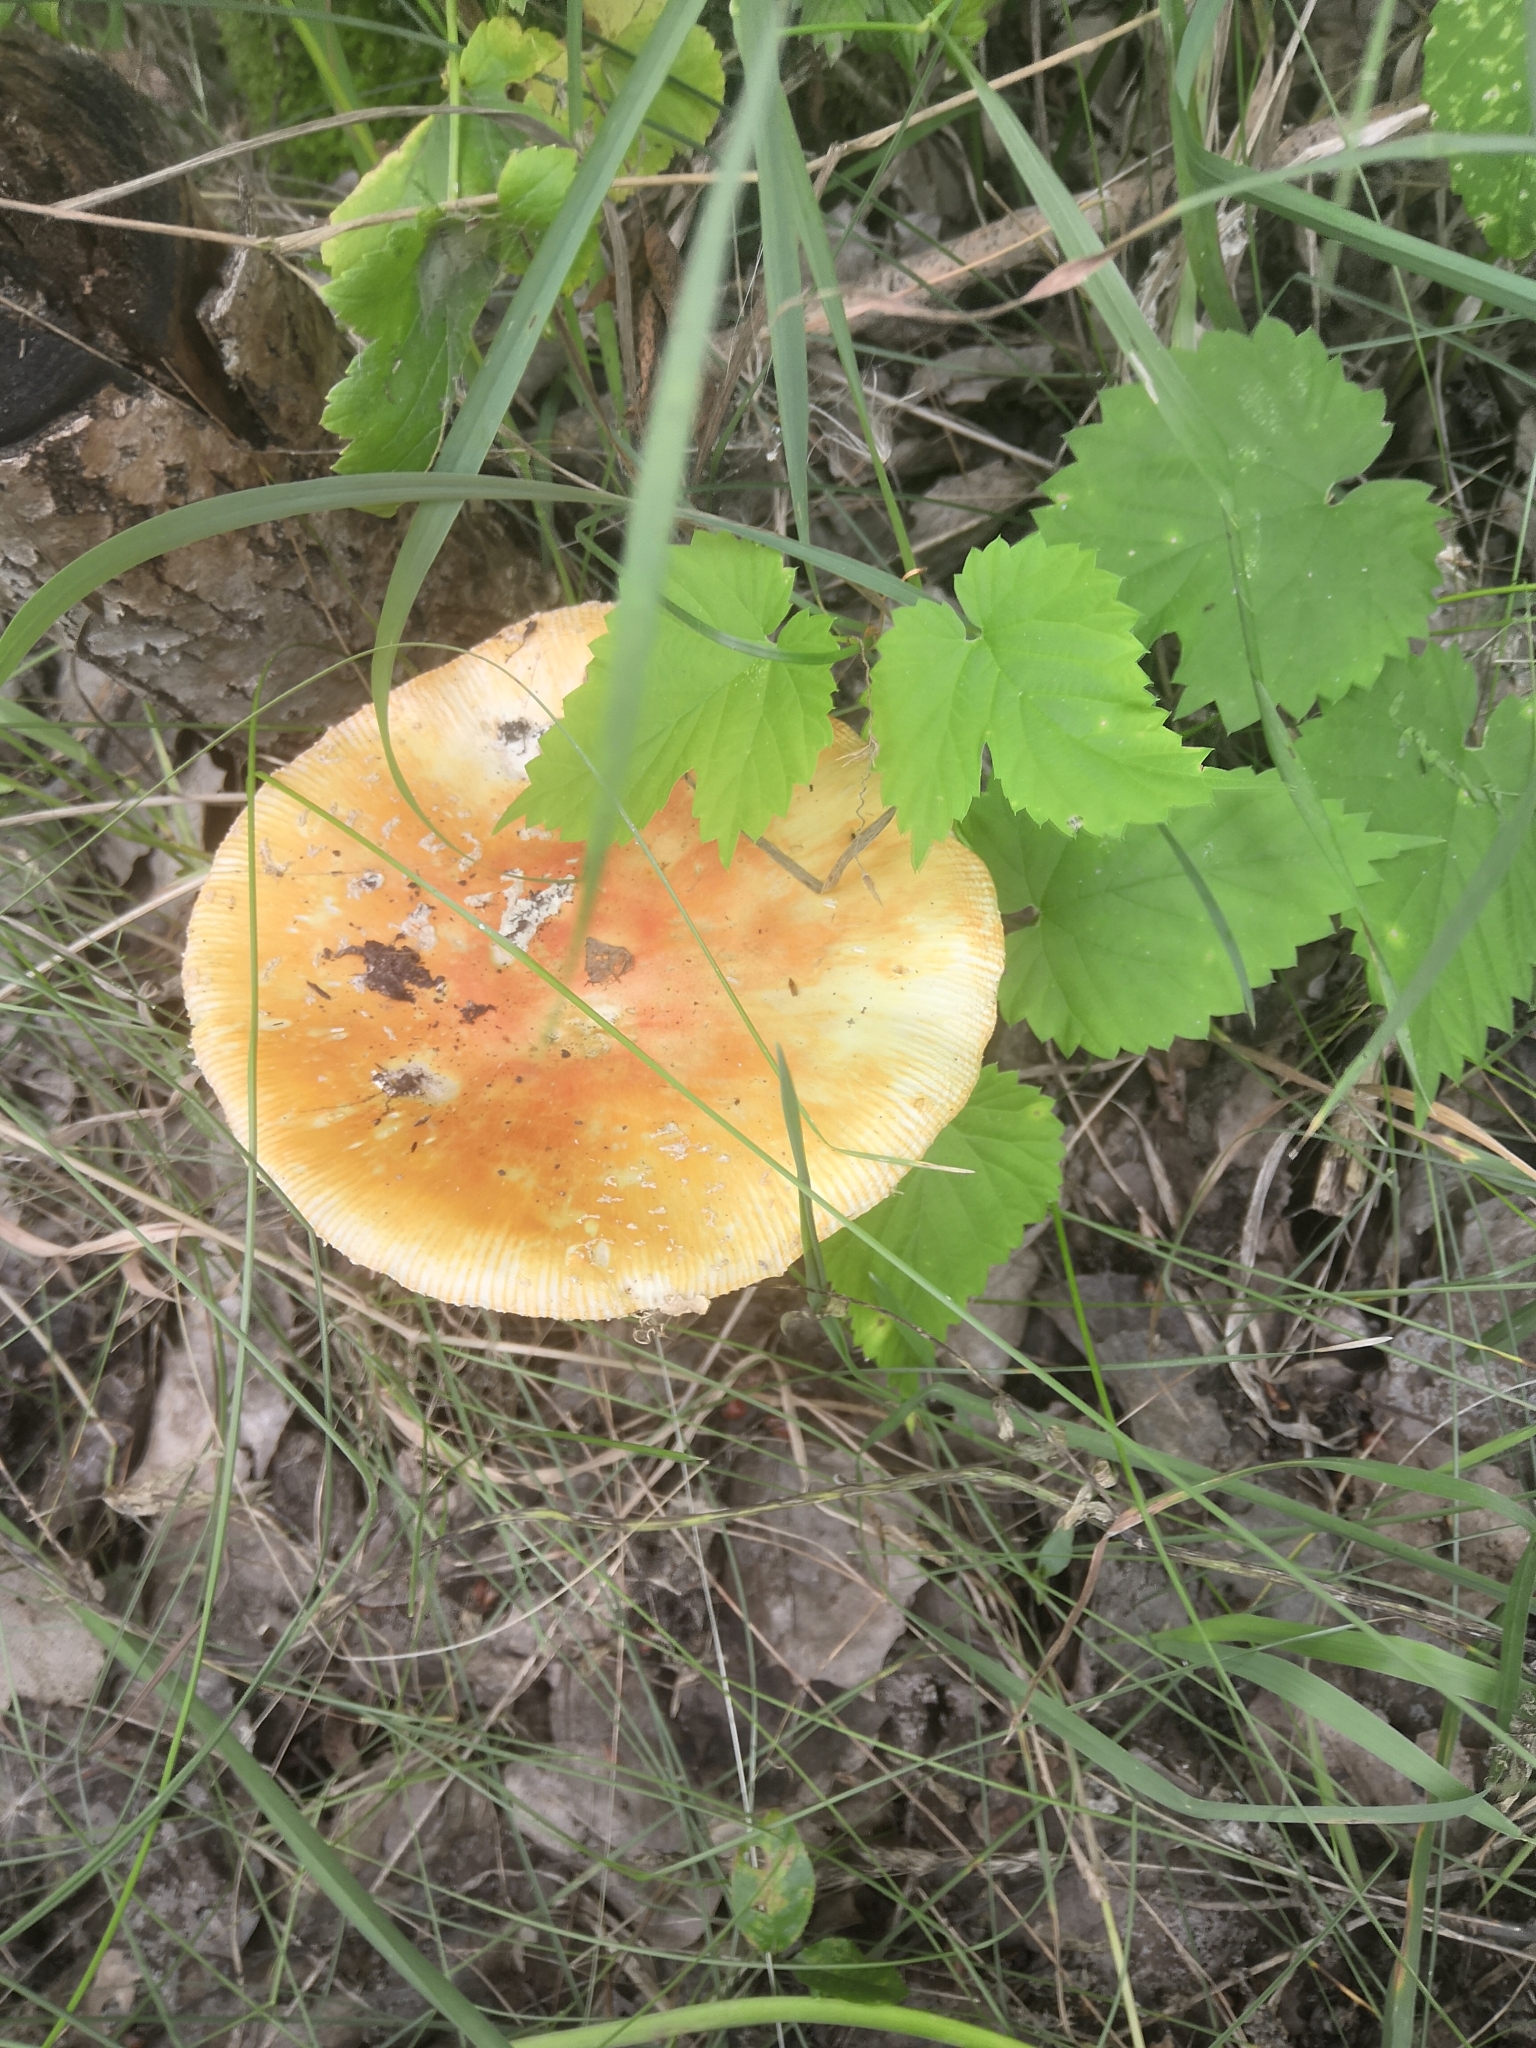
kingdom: Fungi
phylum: Basidiomycota
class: Agaricomycetes
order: Agaricales
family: Amanitaceae
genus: Amanita
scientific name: Amanita muscaria
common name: Fly agaric
